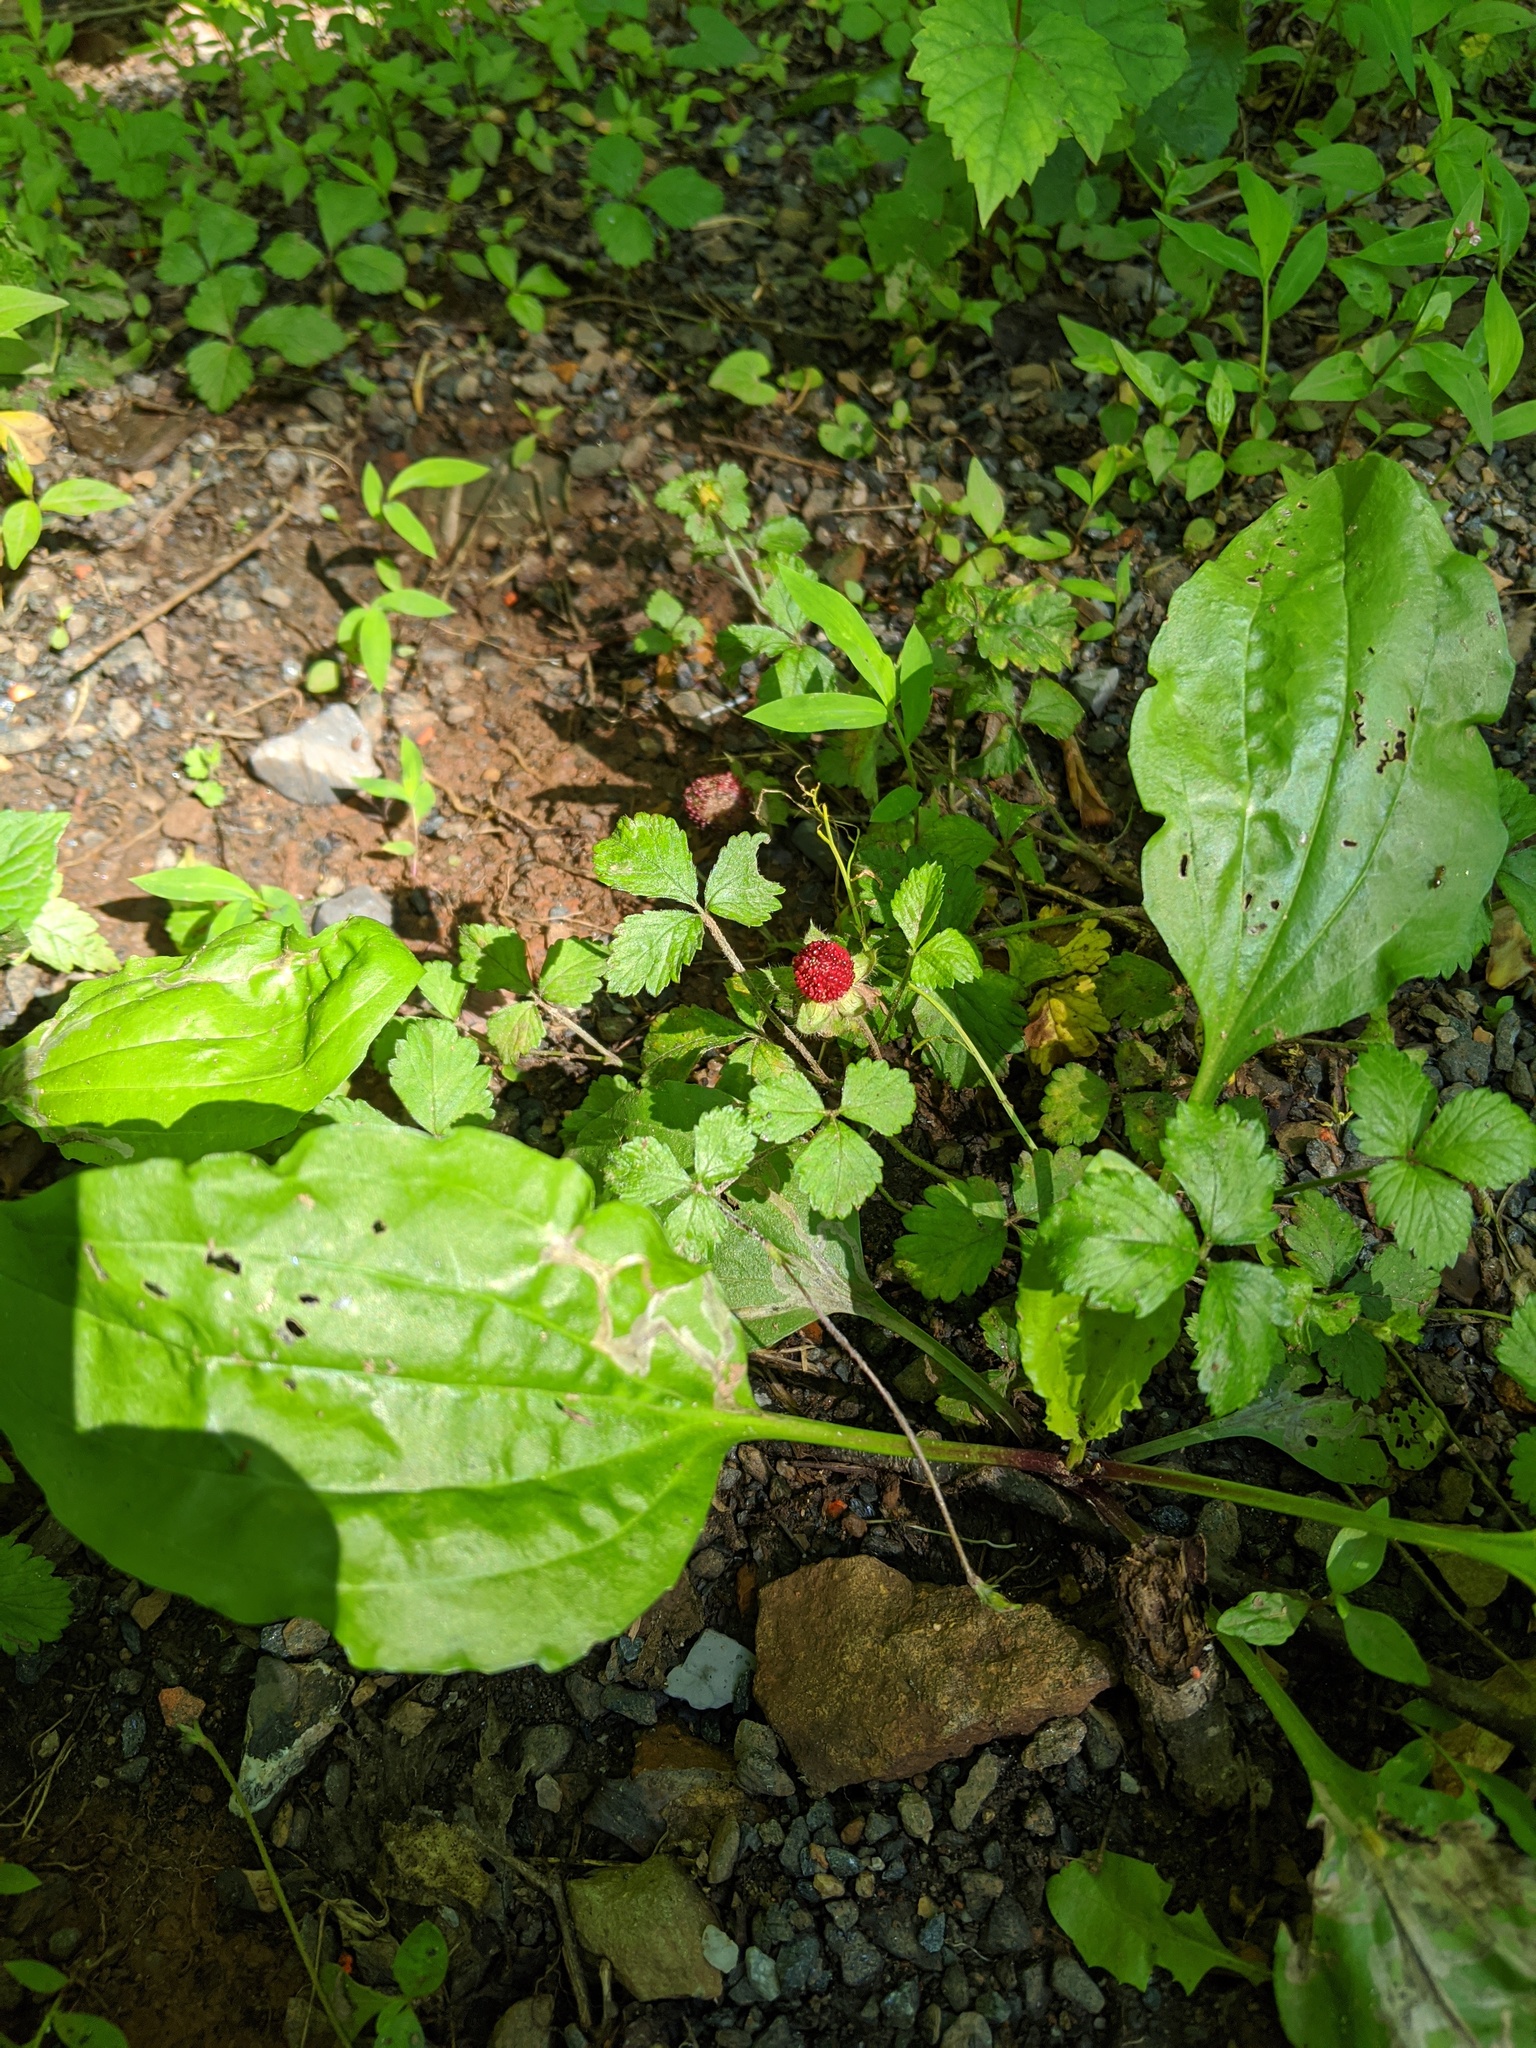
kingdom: Plantae
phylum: Tracheophyta
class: Magnoliopsida
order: Rosales
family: Rosaceae
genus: Potentilla
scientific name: Potentilla indica
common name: Yellow-flowered strawberry
